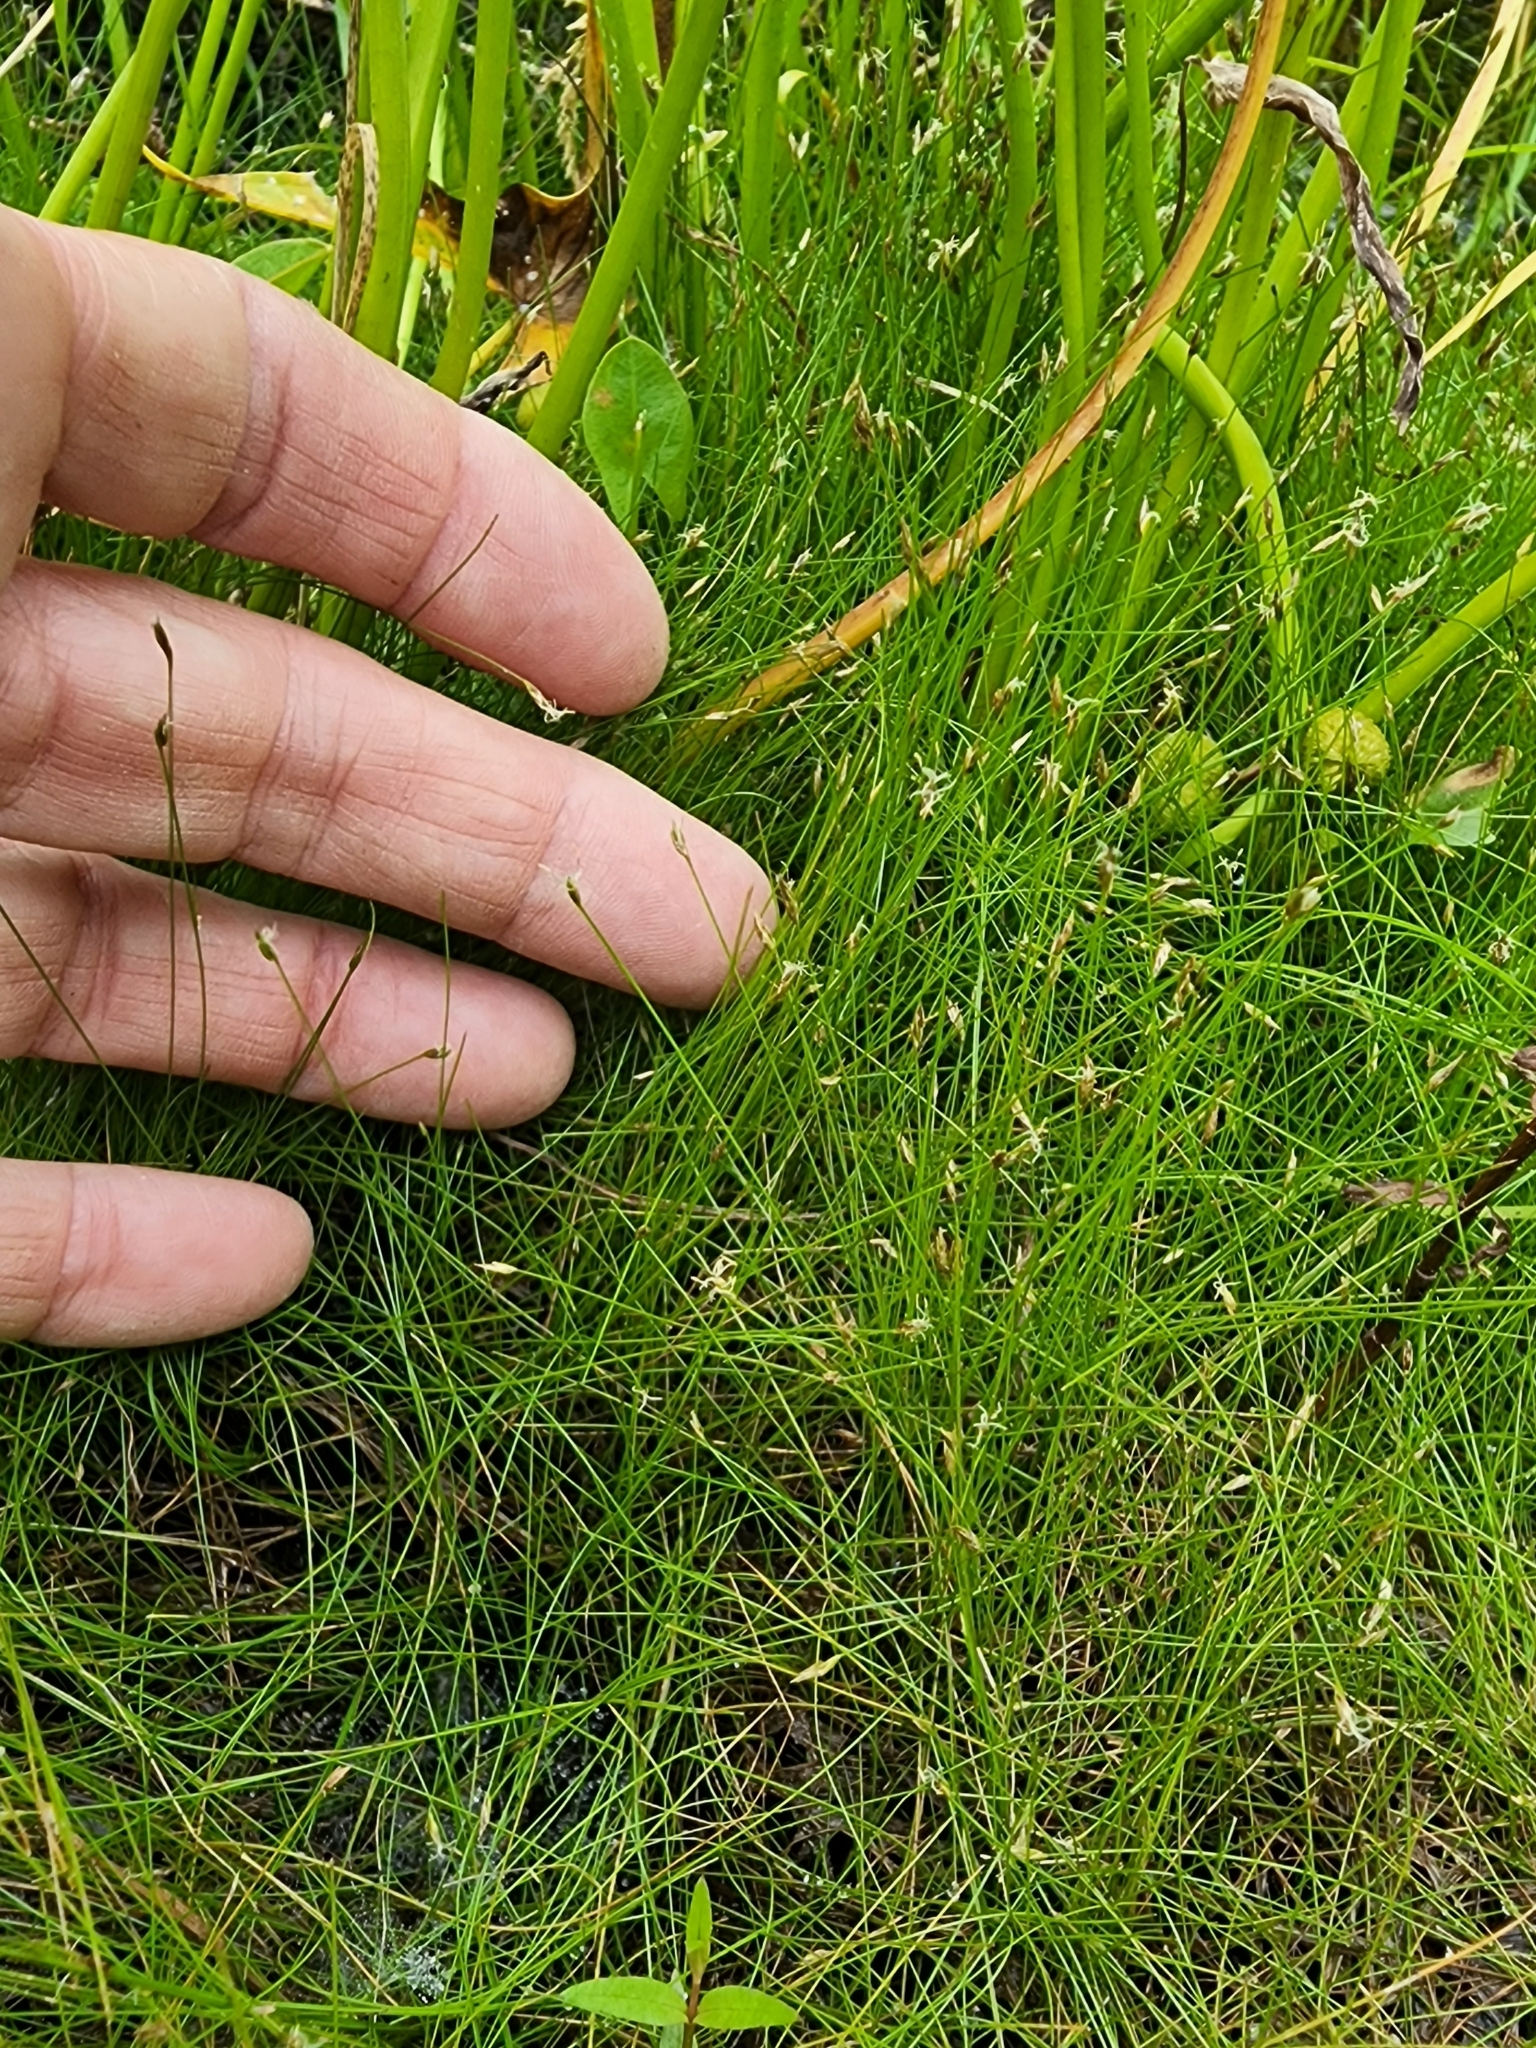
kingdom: Plantae
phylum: Tracheophyta
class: Liliopsida
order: Poales
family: Cyperaceae
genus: Eleocharis
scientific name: Eleocharis acicularis
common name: Needle spike-rush
